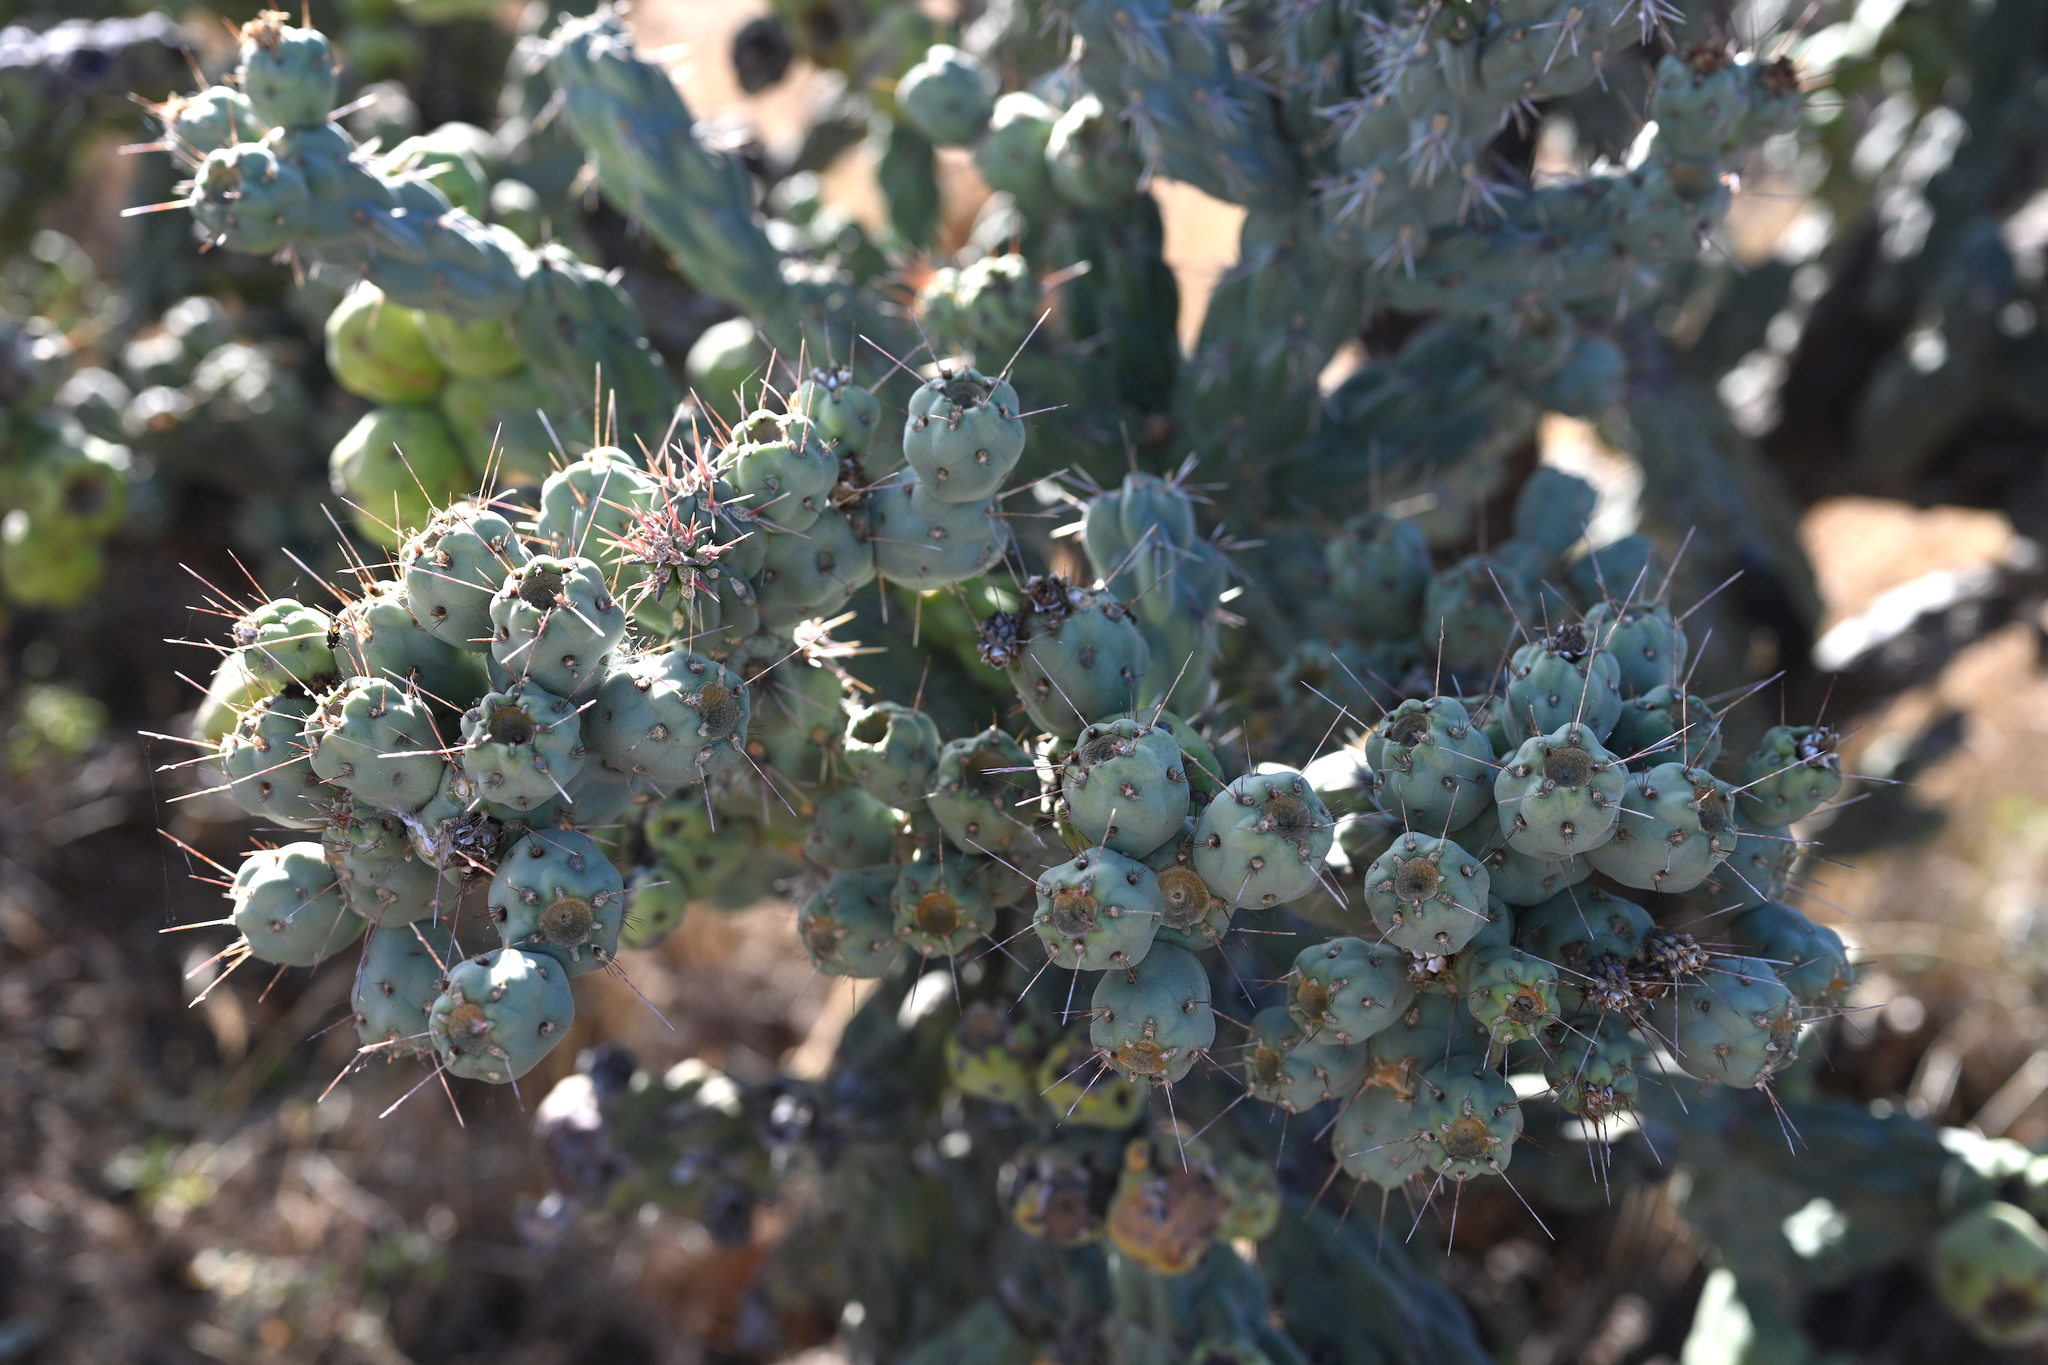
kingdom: Plantae
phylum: Tracheophyta
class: Magnoliopsida
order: Caryophyllales
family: Cactaceae
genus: Cylindropuntia
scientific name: Cylindropuntia cholla
